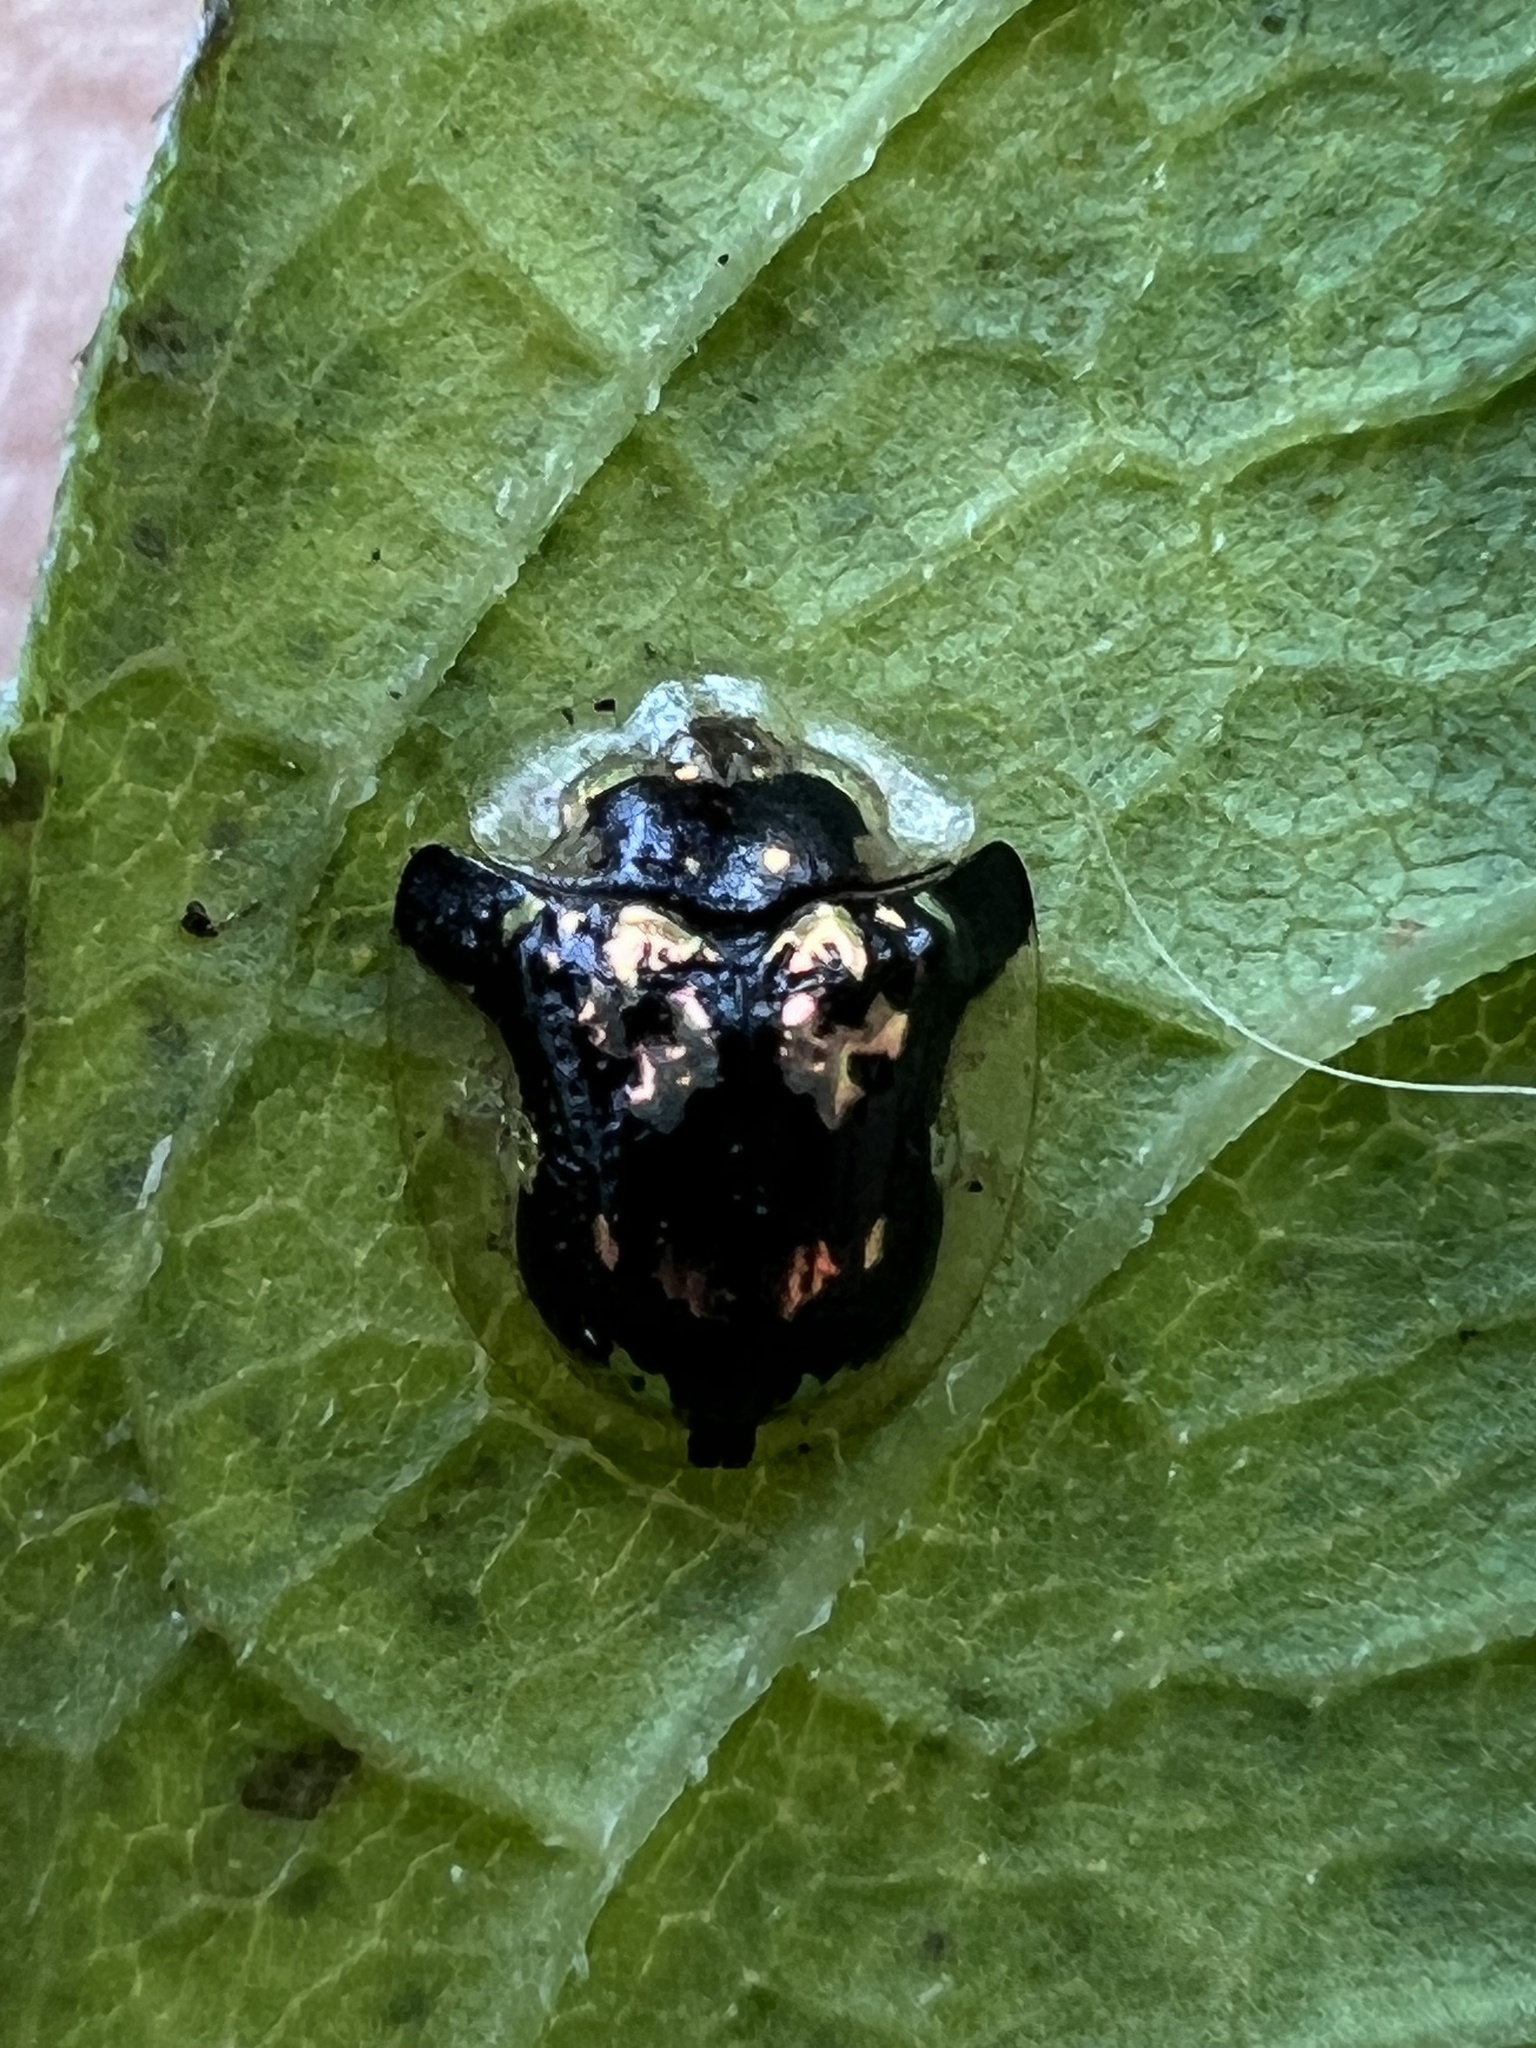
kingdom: Animalia
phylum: Arthropoda
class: Insecta
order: Coleoptera
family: Chrysomelidae
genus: Deloyala
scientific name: Deloyala guttata
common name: Mottled tortoise beetle
